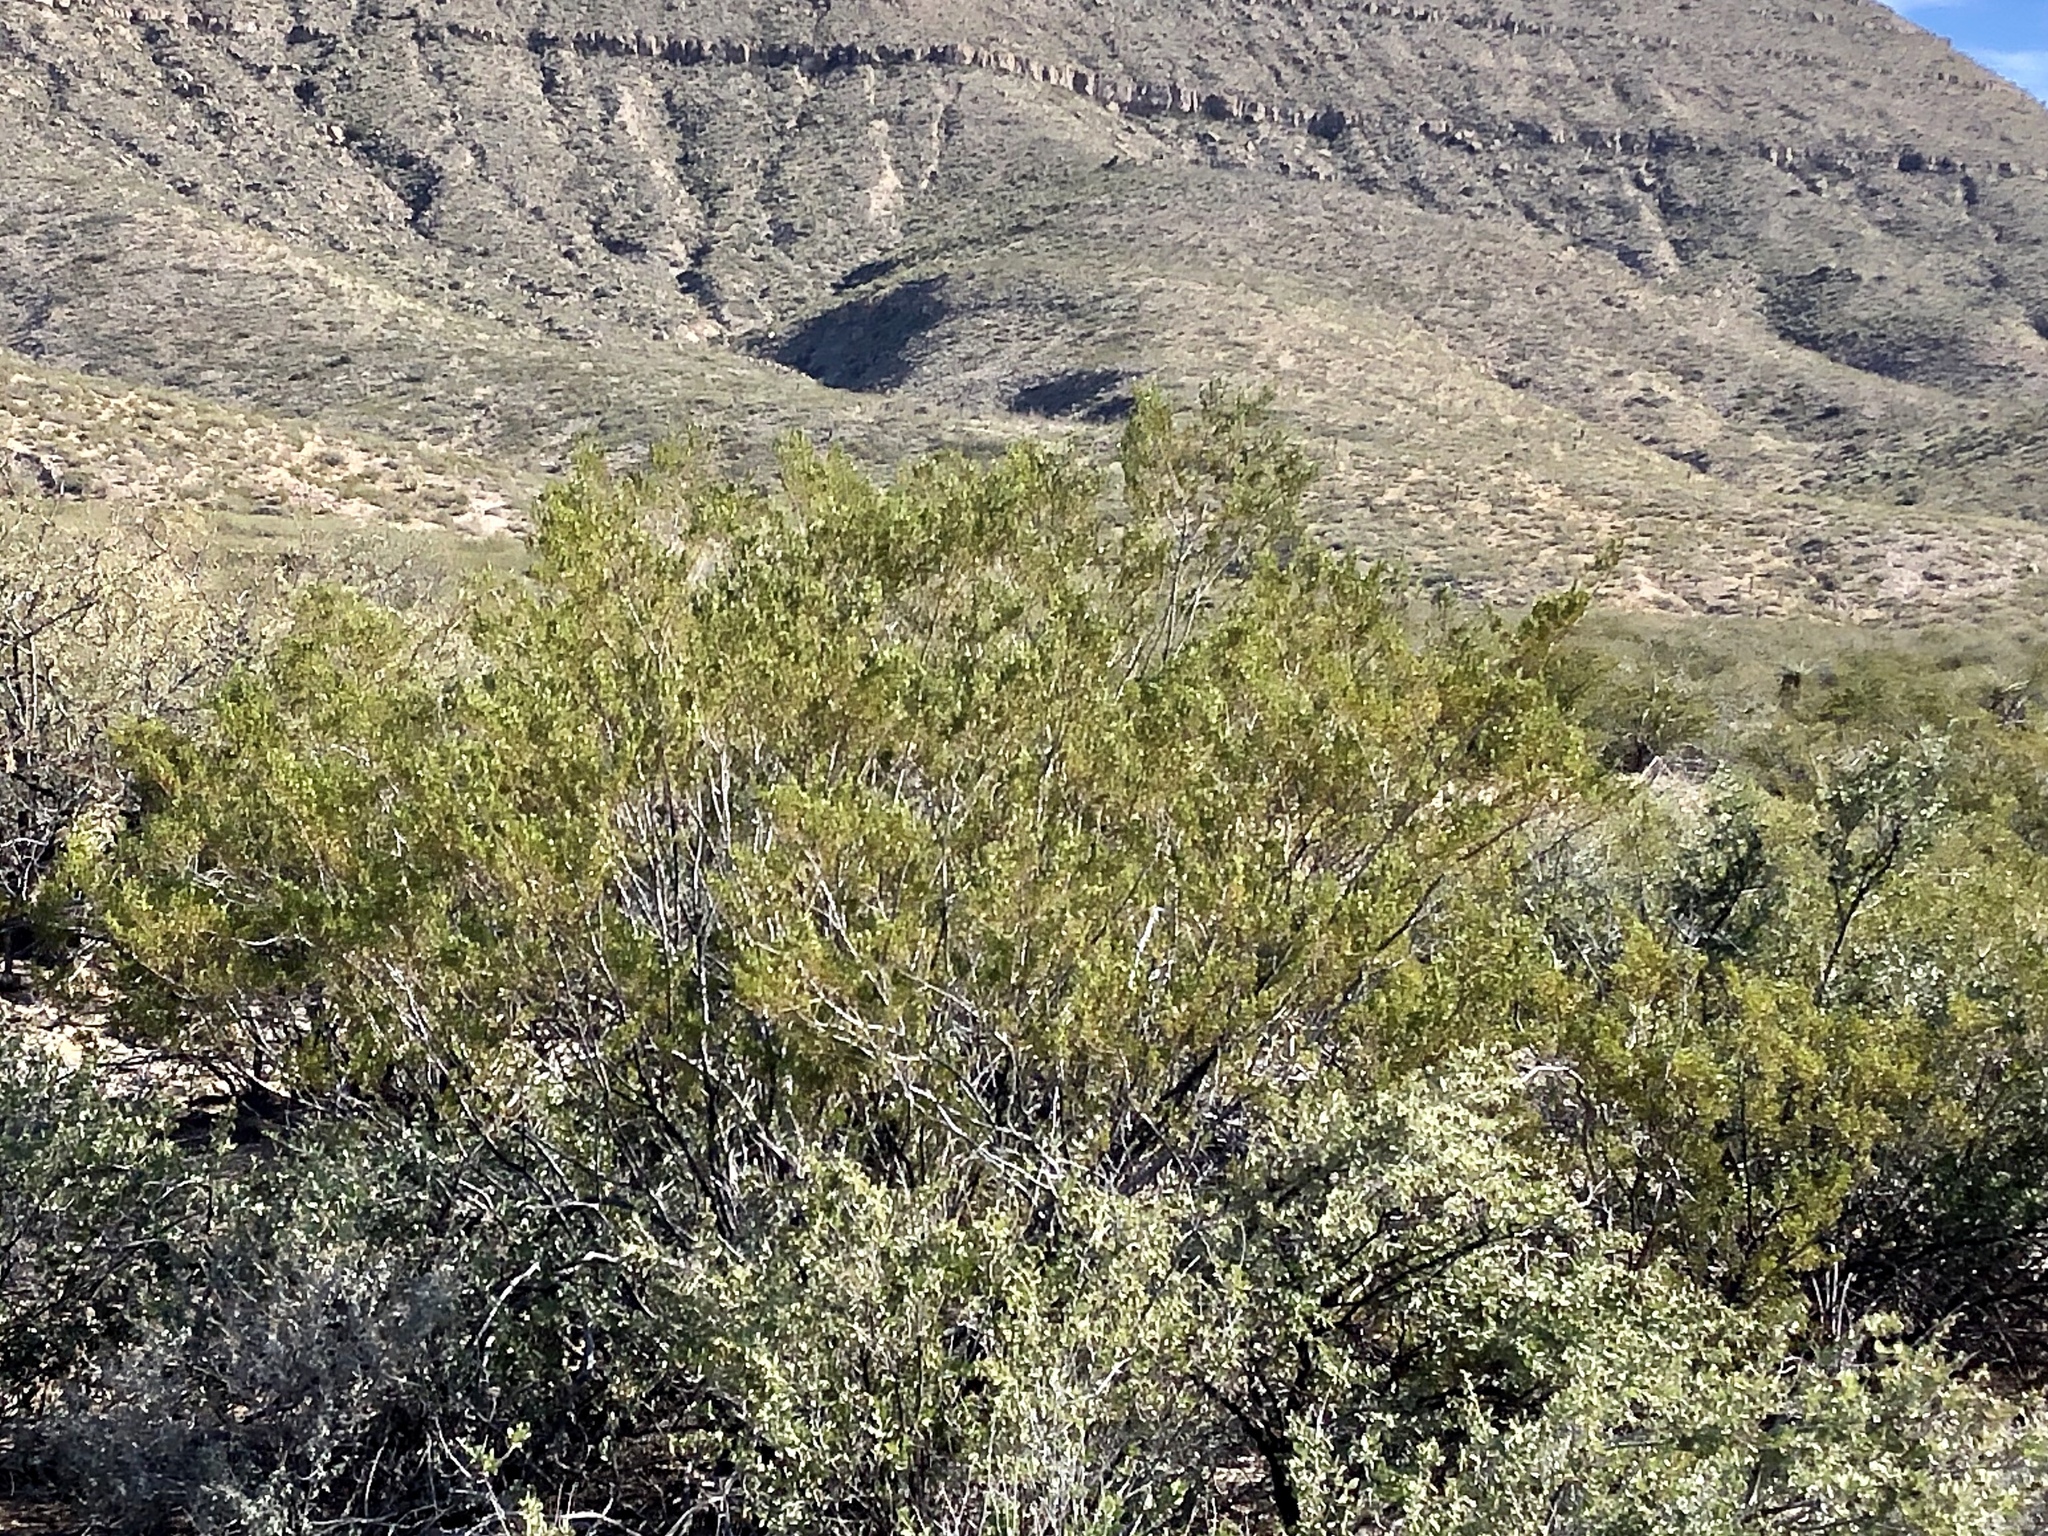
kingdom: Plantae
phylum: Tracheophyta
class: Magnoliopsida
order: Zygophyllales
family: Zygophyllaceae
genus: Larrea
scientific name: Larrea tridentata
